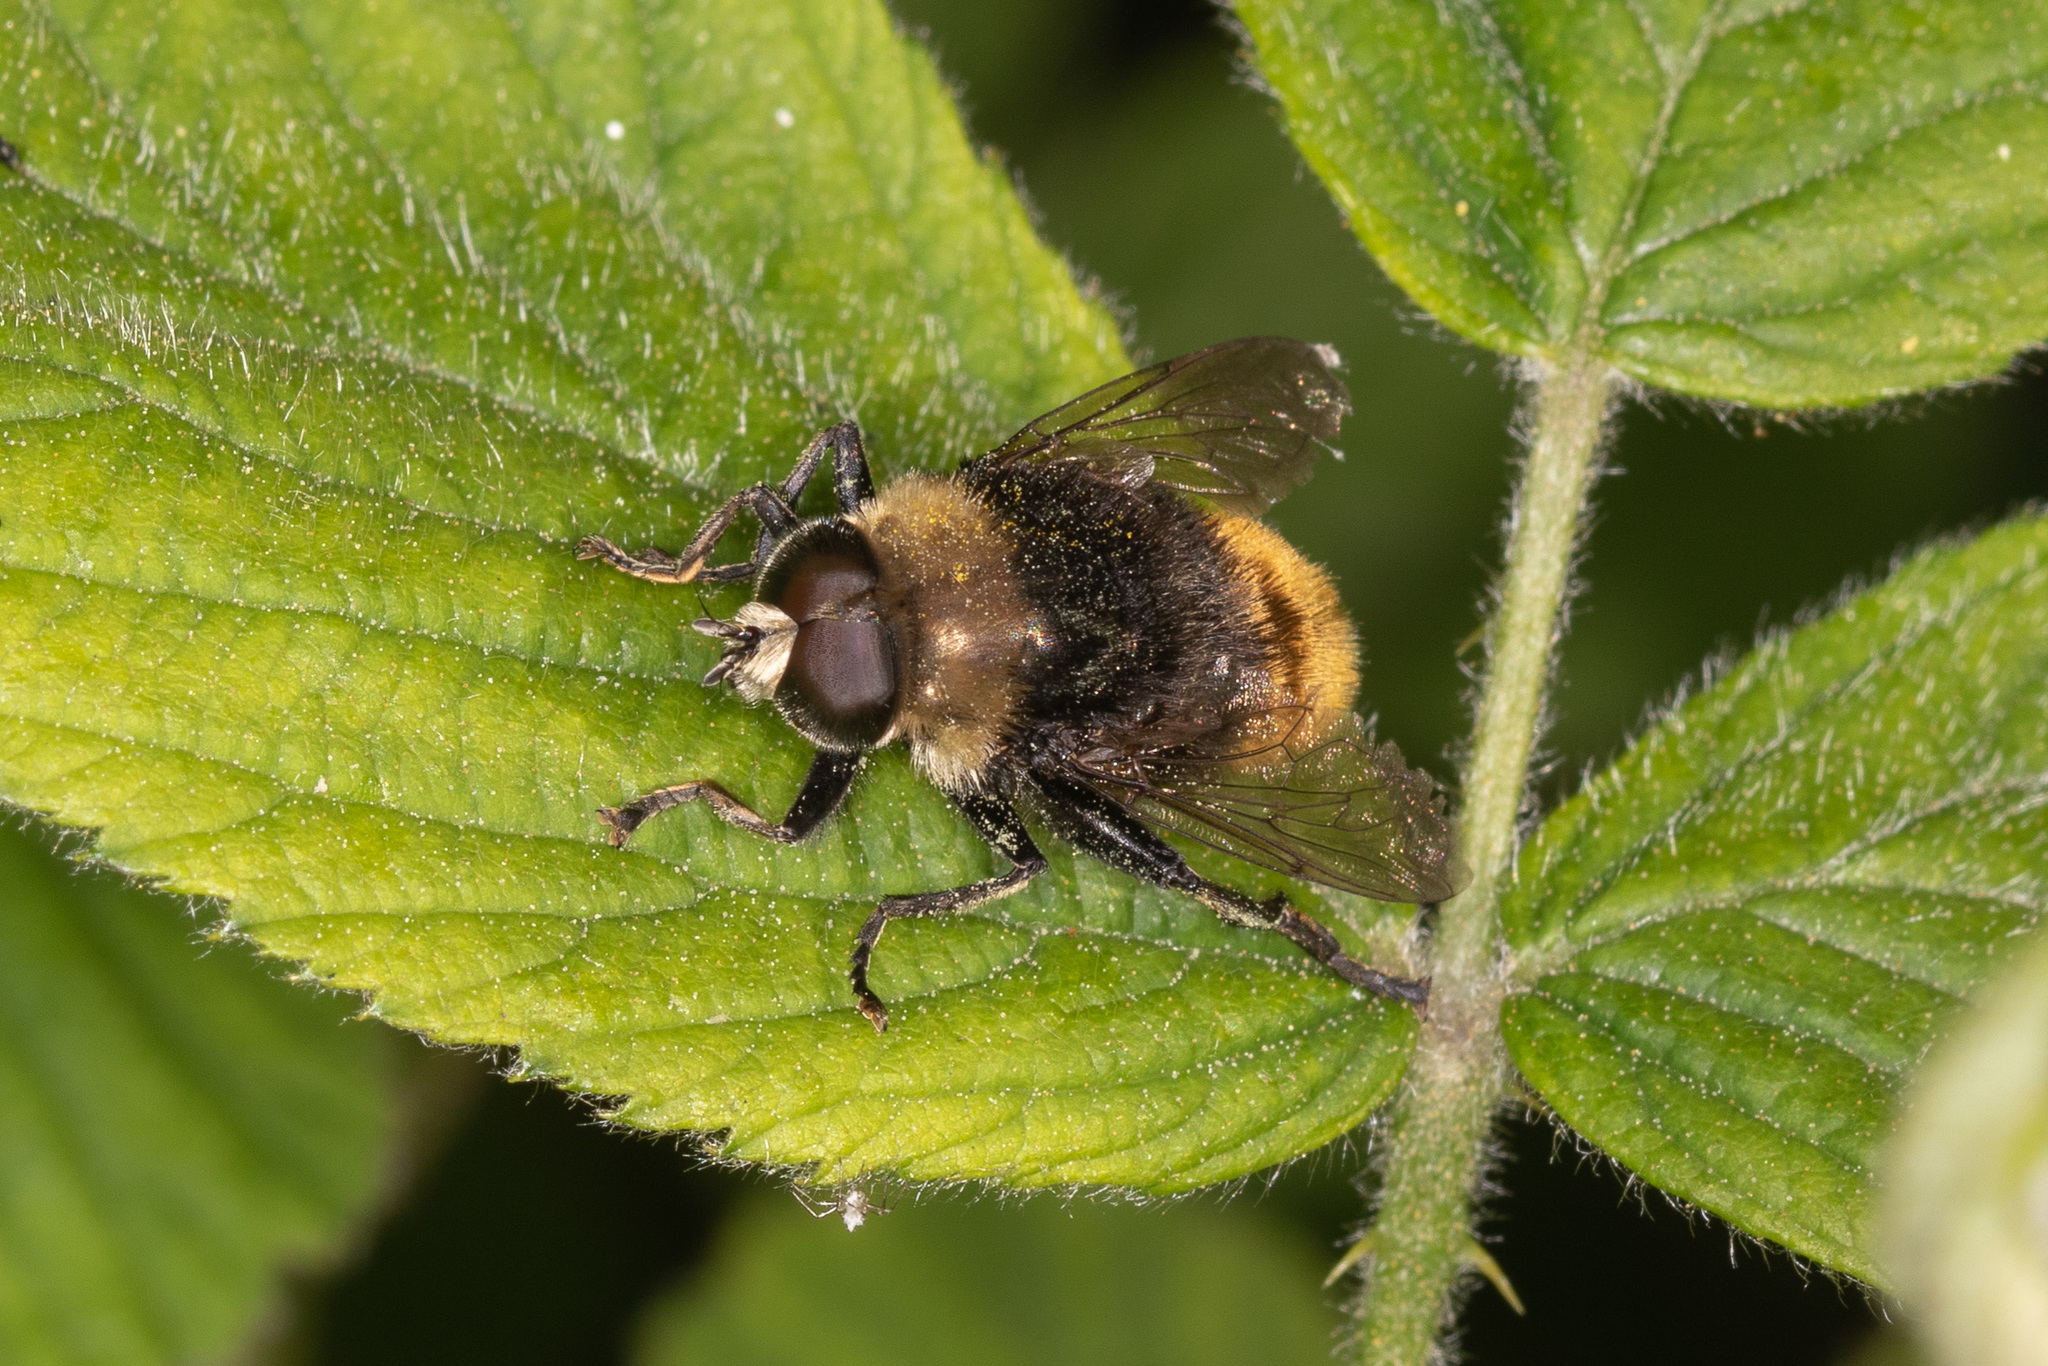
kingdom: Animalia
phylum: Arthropoda
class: Insecta
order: Diptera
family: Syrphidae
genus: Merodon
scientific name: Merodon equestris
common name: Greater bulb-fly
